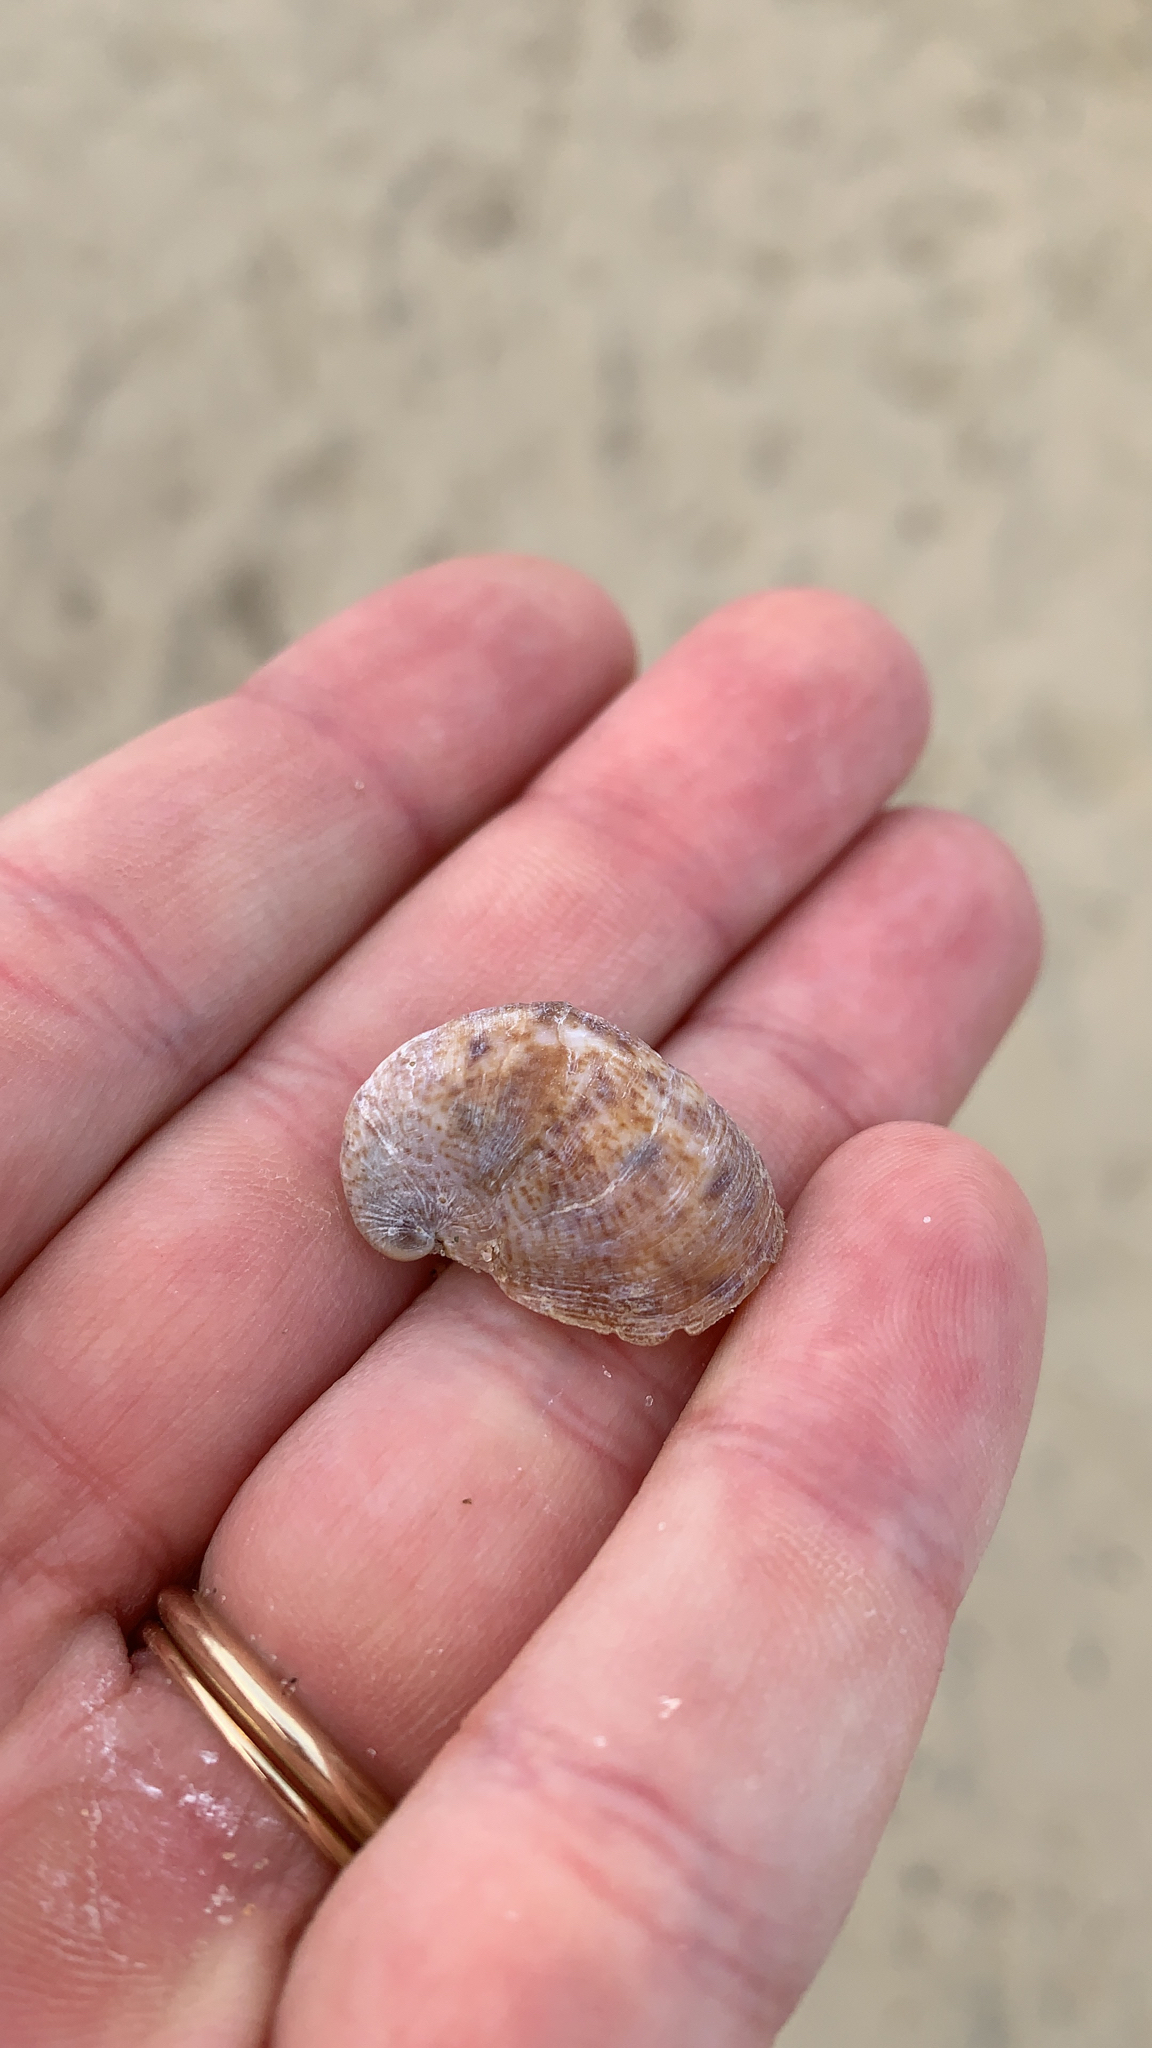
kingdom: Animalia
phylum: Mollusca
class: Gastropoda
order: Littorinimorpha
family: Calyptraeidae
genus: Crepidula
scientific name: Crepidula fornicata
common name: Slipper limpet
